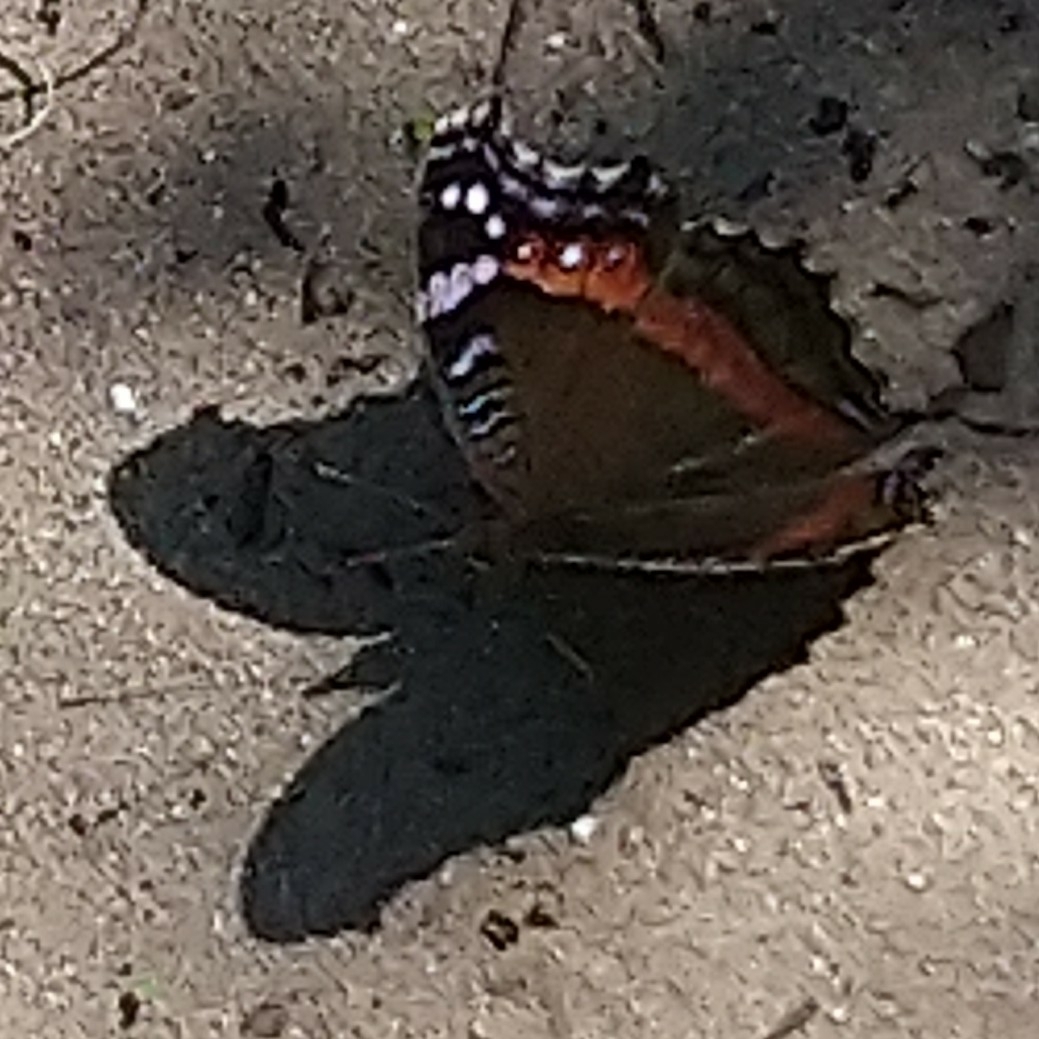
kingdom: Animalia
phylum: Arthropoda
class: Insecta
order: Lepidoptera
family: Nymphalidae
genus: Junonia
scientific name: Junonia archesia
